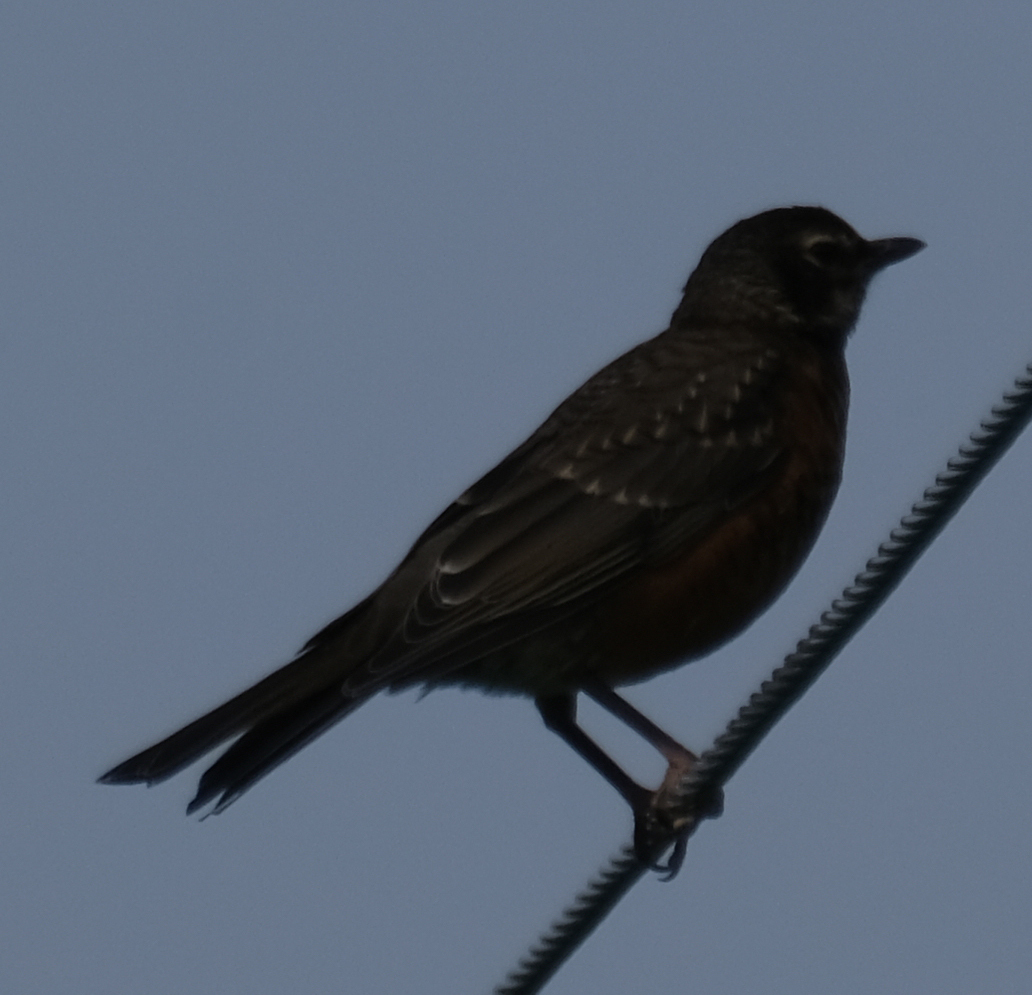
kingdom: Animalia
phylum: Chordata
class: Aves
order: Passeriformes
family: Turdidae
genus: Turdus
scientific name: Turdus migratorius
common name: American robin
